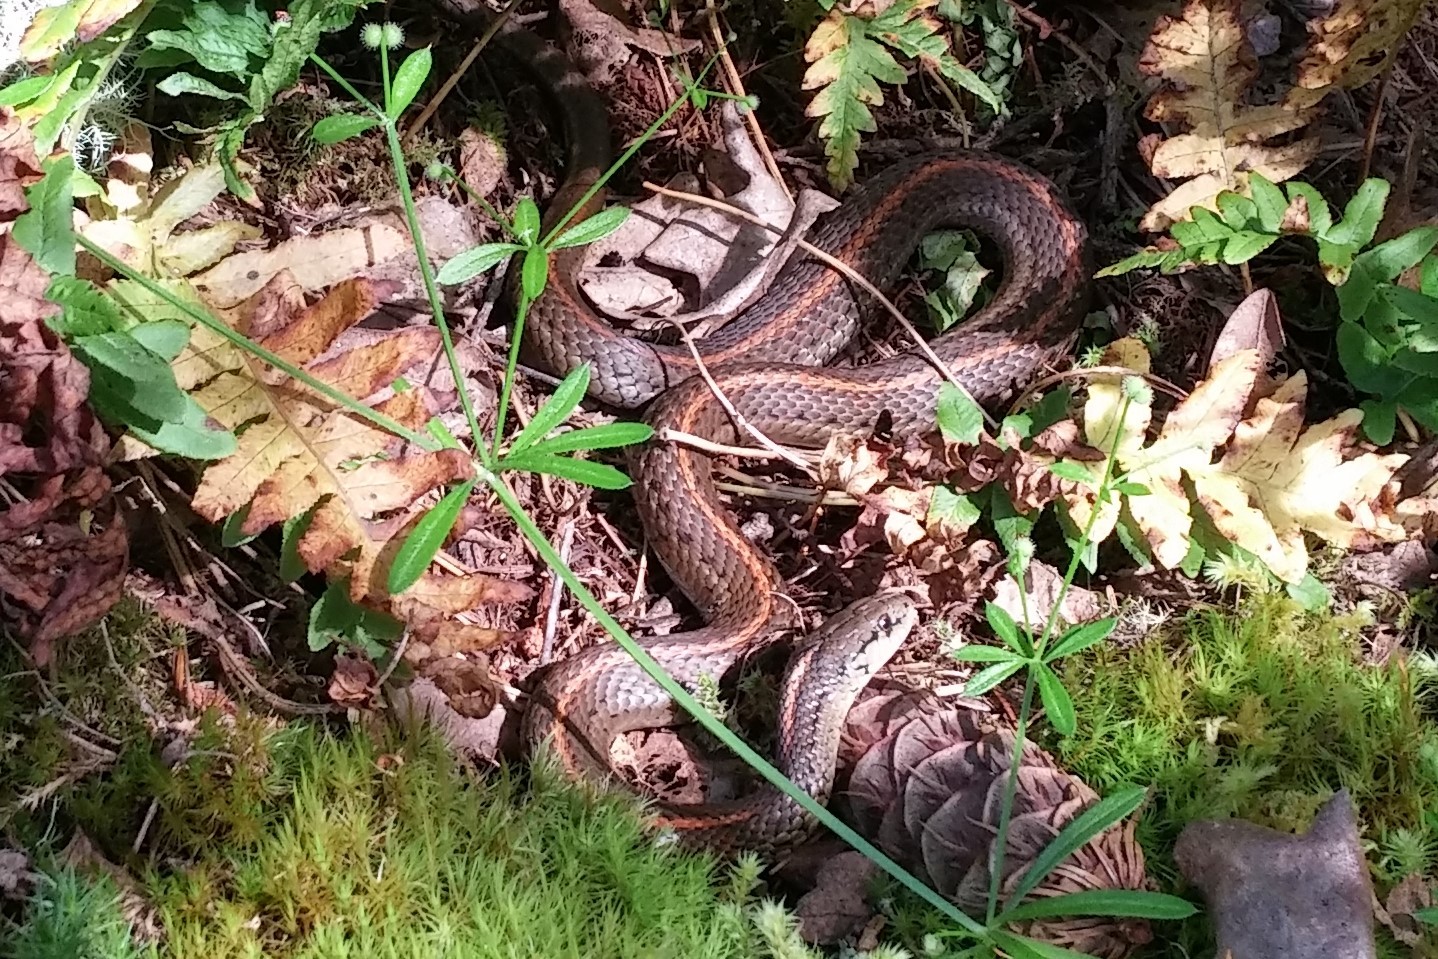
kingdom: Animalia
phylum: Chordata
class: Squamata
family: Colubridae
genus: Thamnophis
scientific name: Thamnophis ordinoides
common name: Northwestern garter snake
